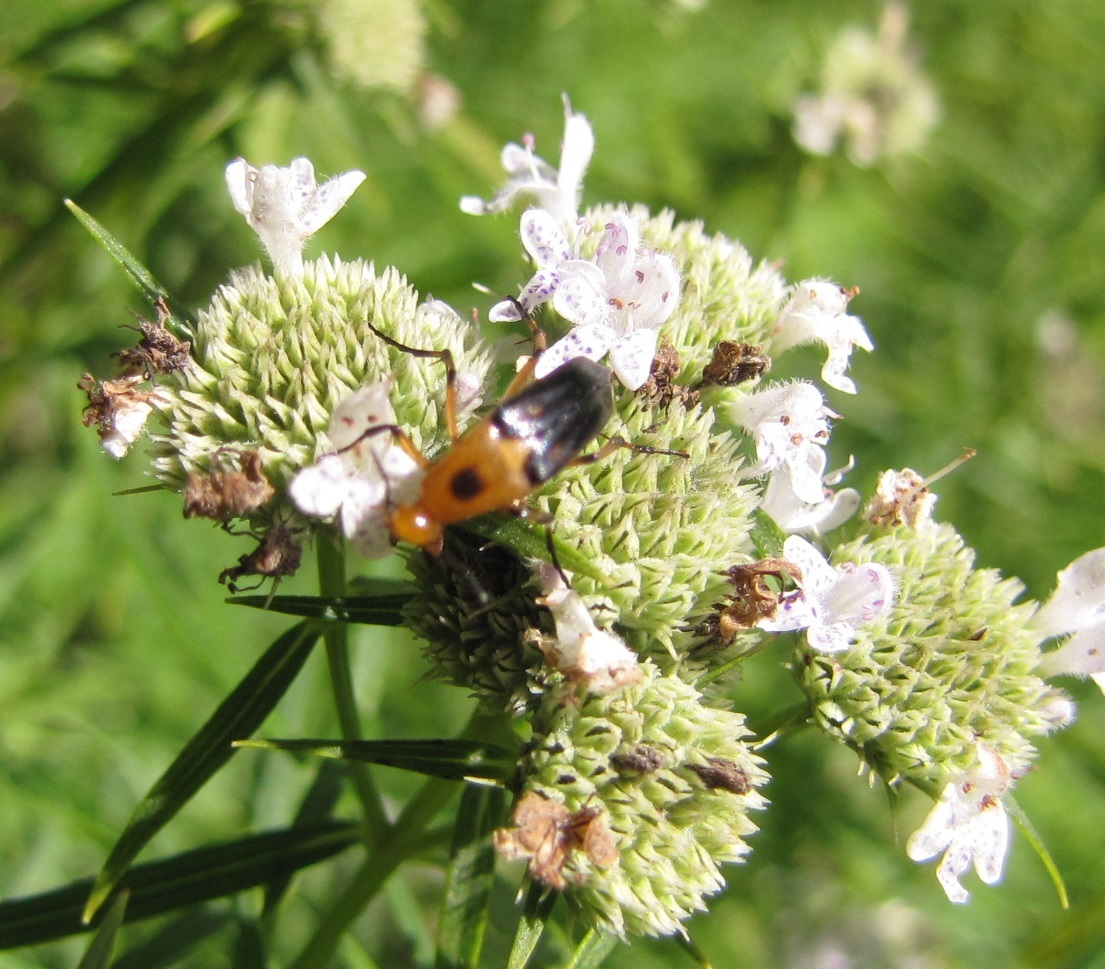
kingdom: Animalia
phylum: Arthropoda
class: Insecta
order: Coleoptera
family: Ripiphoridae
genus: Macrosiagon
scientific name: Macrosiagon limbatum
